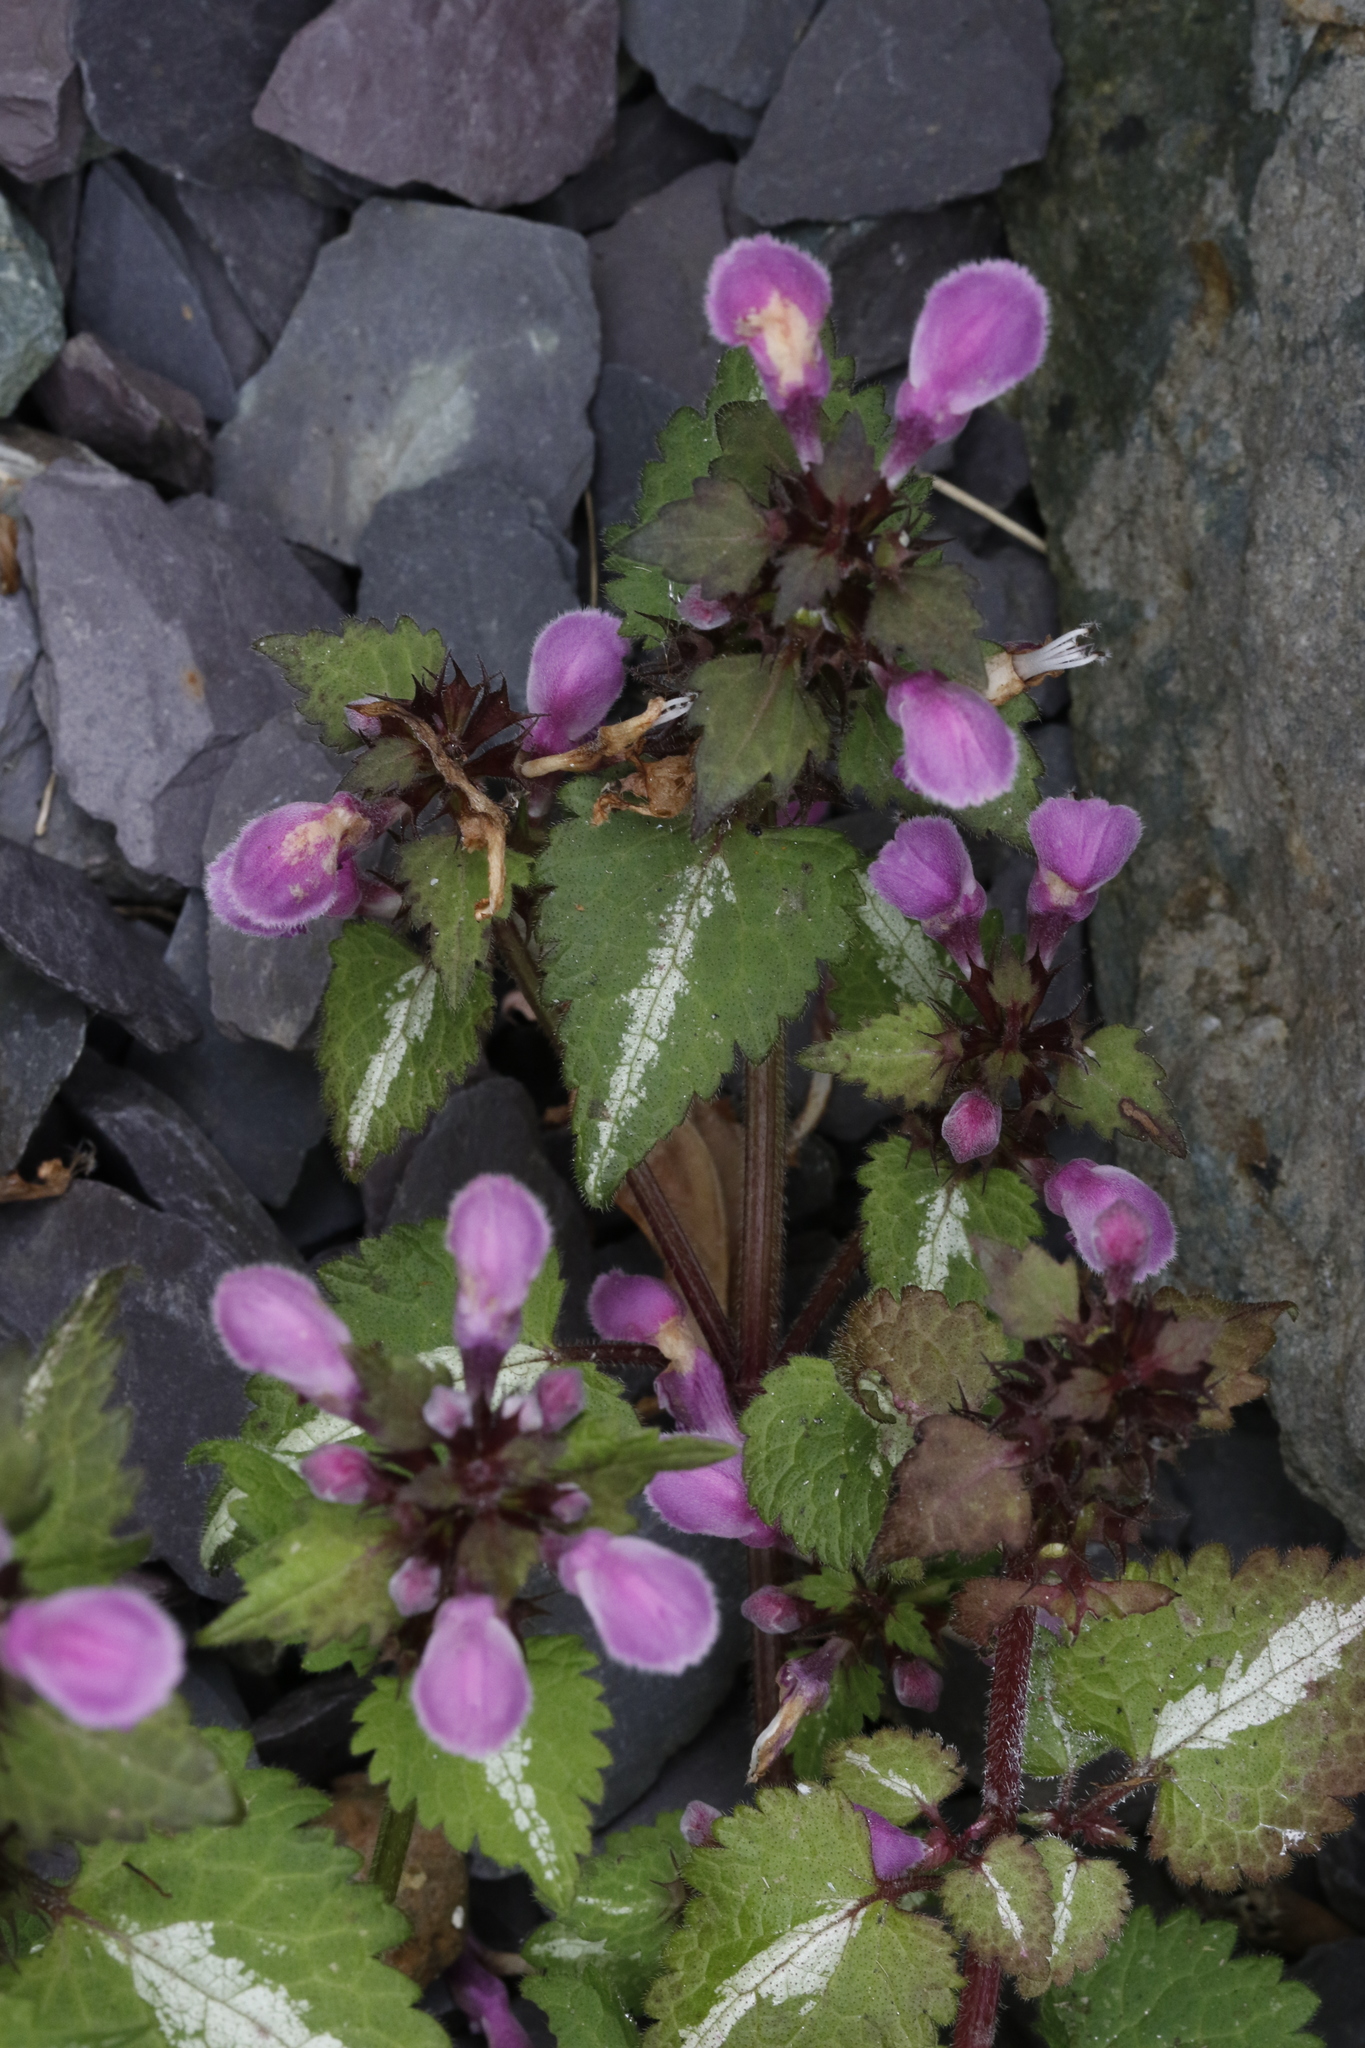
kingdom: Plantae
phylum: Tracheophyta
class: Magnoliopsida
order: Lamiales
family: Lamiaceae
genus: Lamium
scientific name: Lamium maculatum
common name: Spotted dead-nettle
